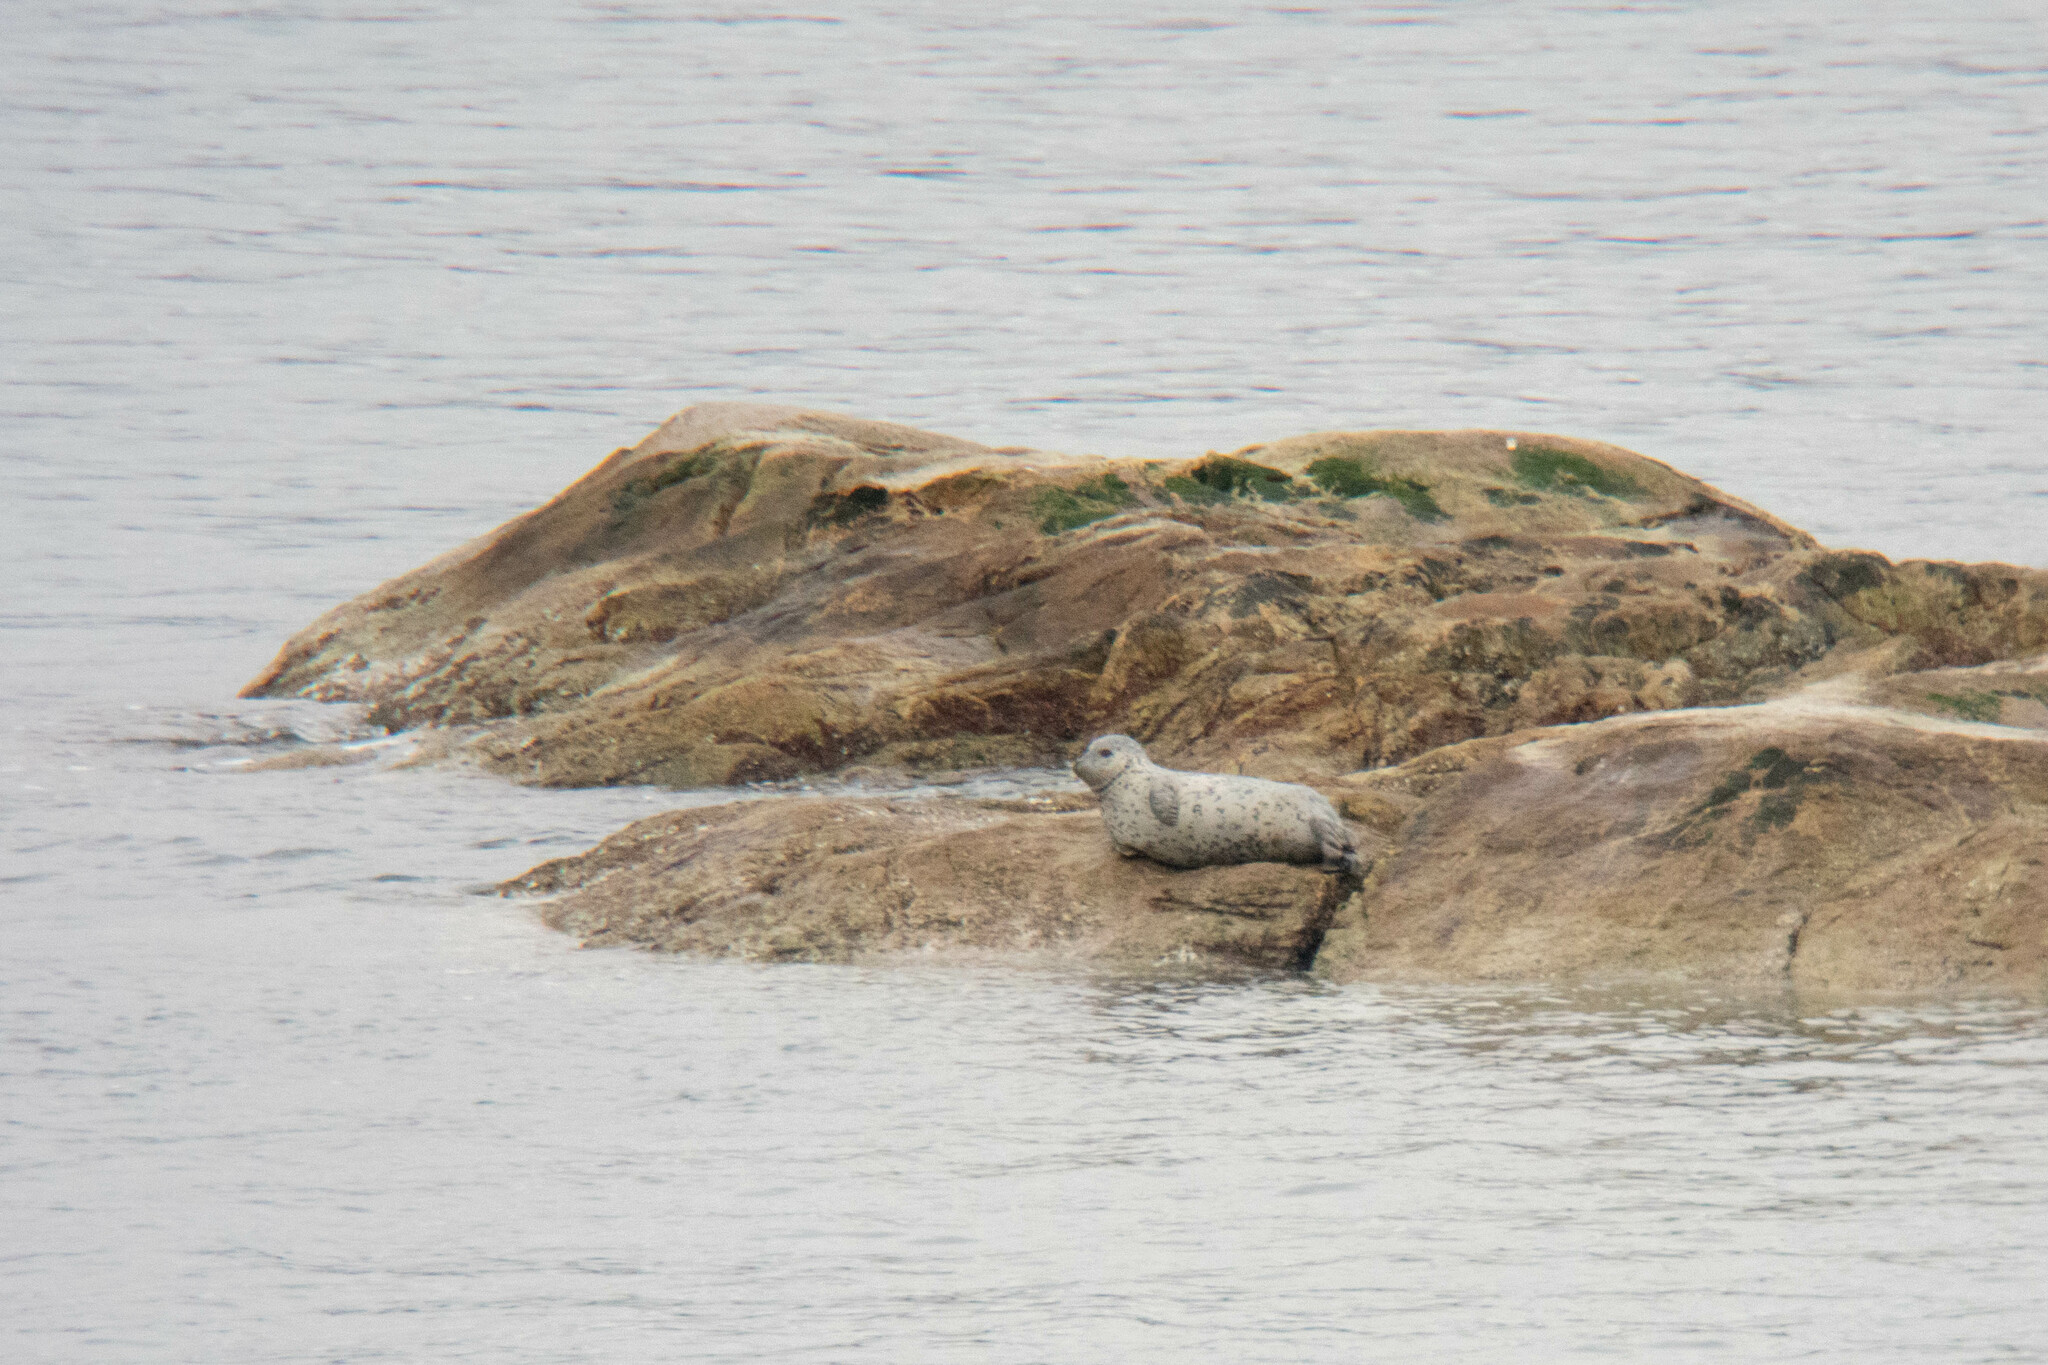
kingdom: Animalia
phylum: Chordata
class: Mammalia
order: Carnivora
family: Phocidae
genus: Phoca
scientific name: Phoca vitulina
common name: Harbor seal
